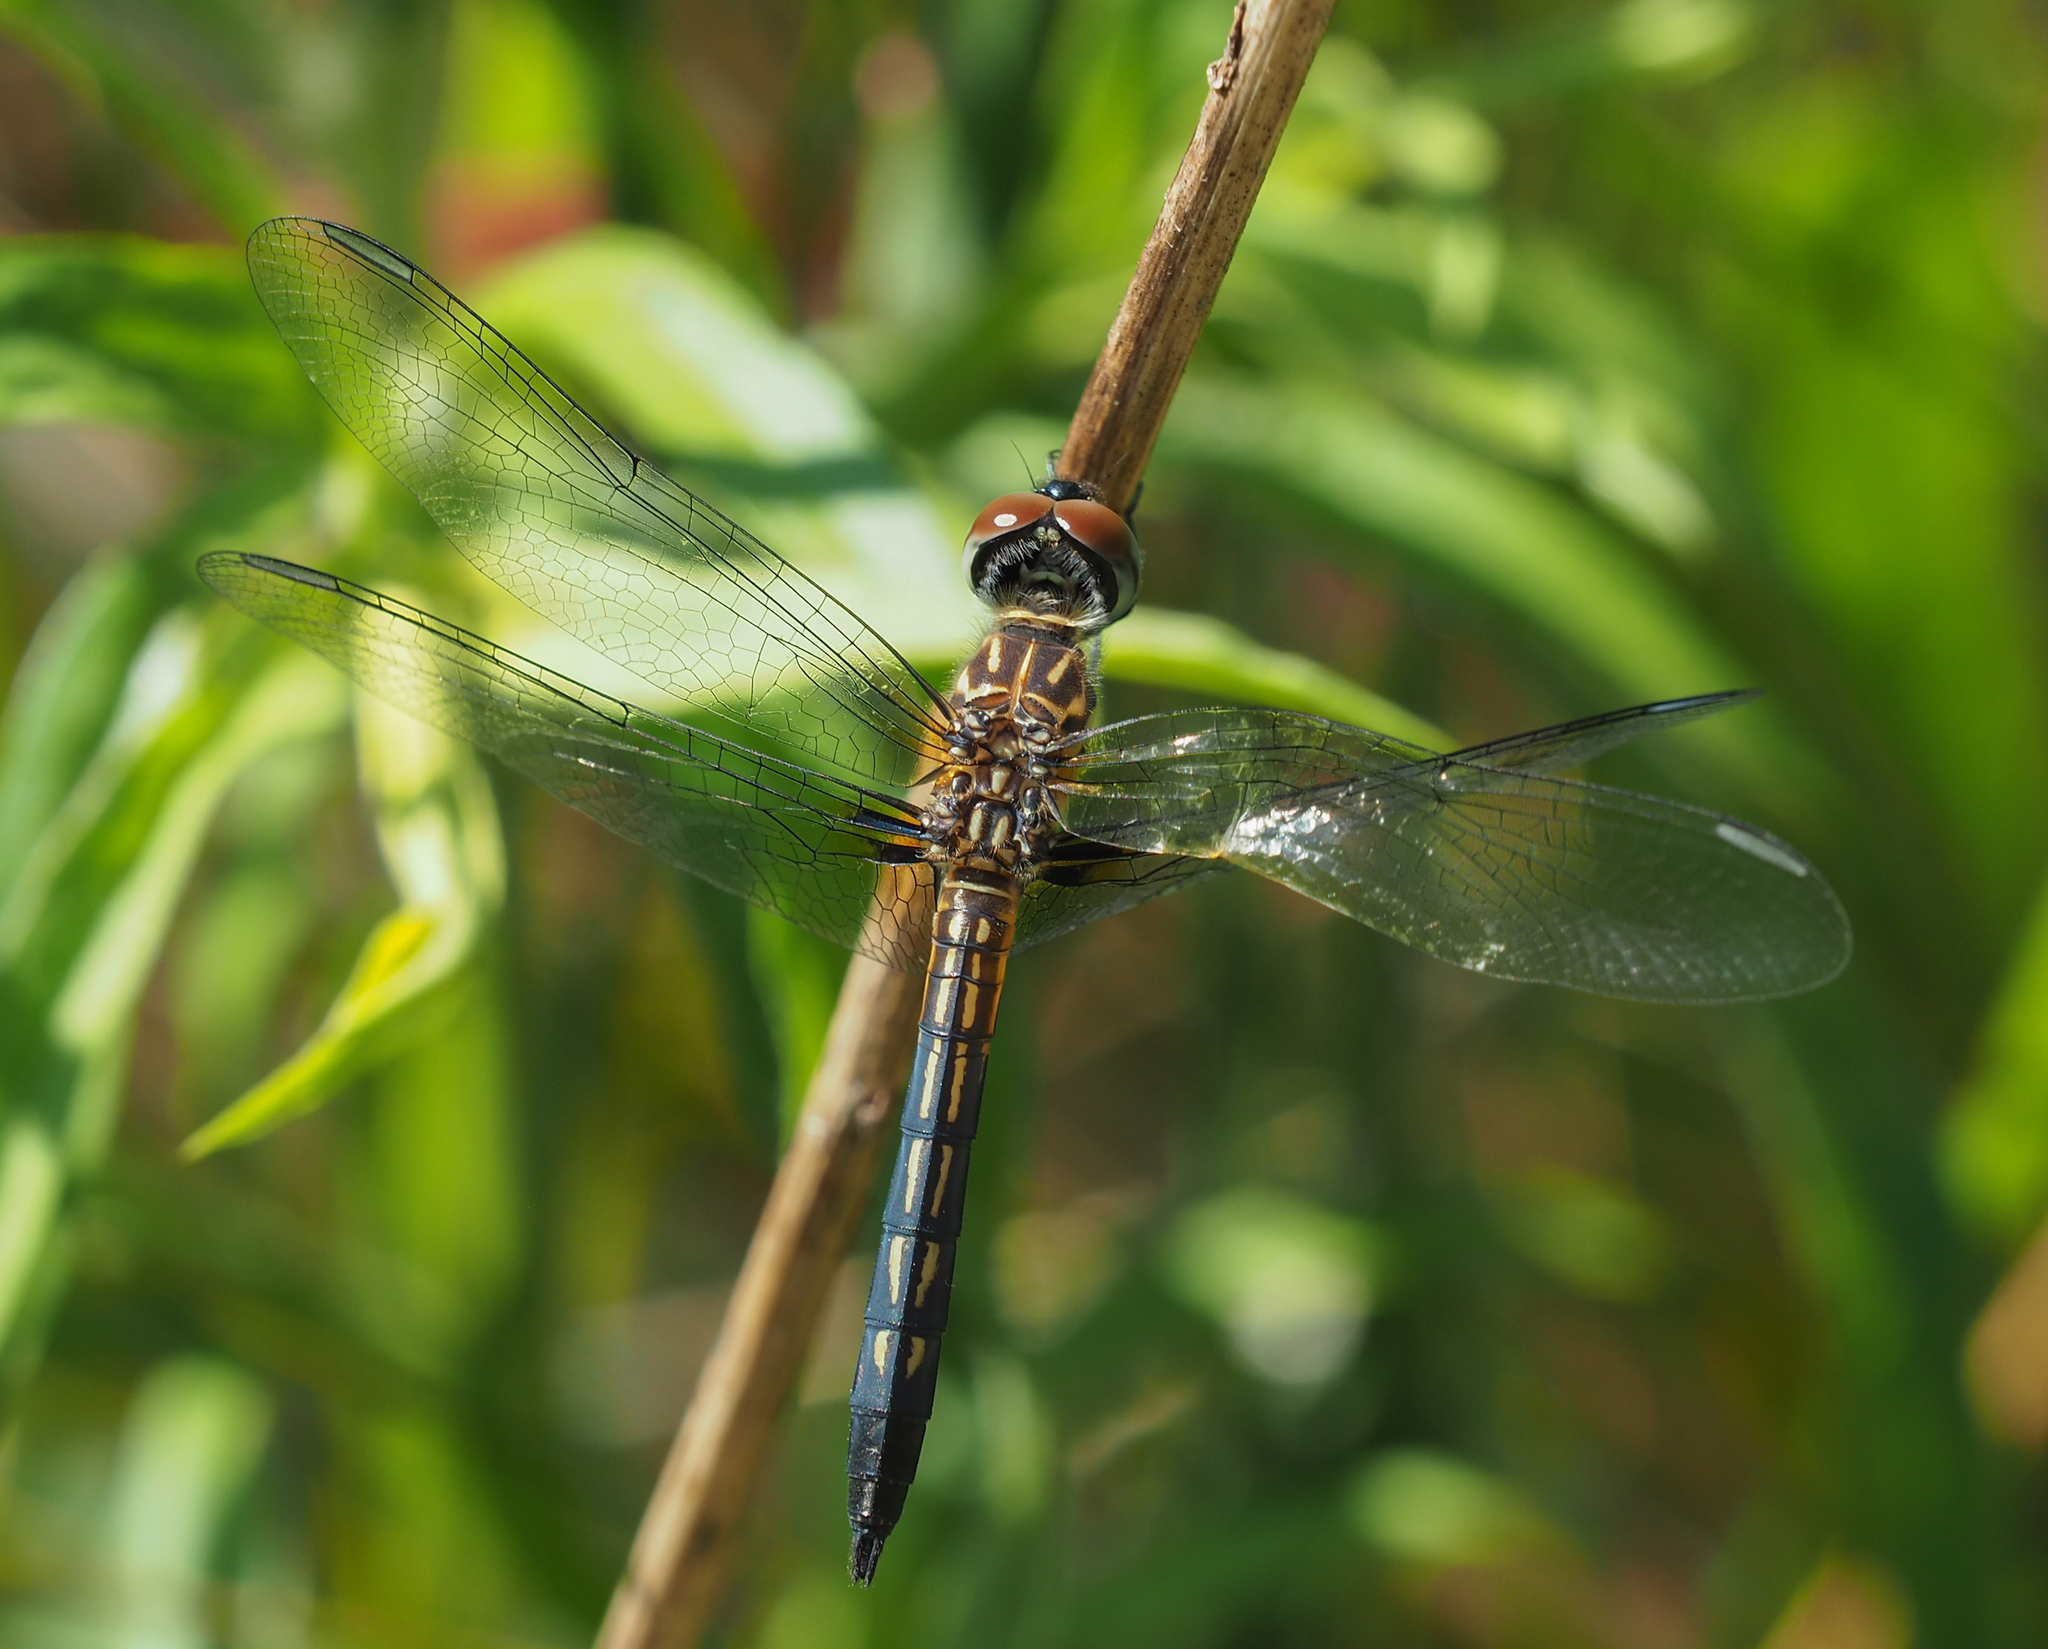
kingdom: Animalia
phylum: Arthropoda
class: Insecta
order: Odonata
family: Libellulidae
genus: Pachydiplax
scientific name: Pachydiplax longipennis
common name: Blue dasher
